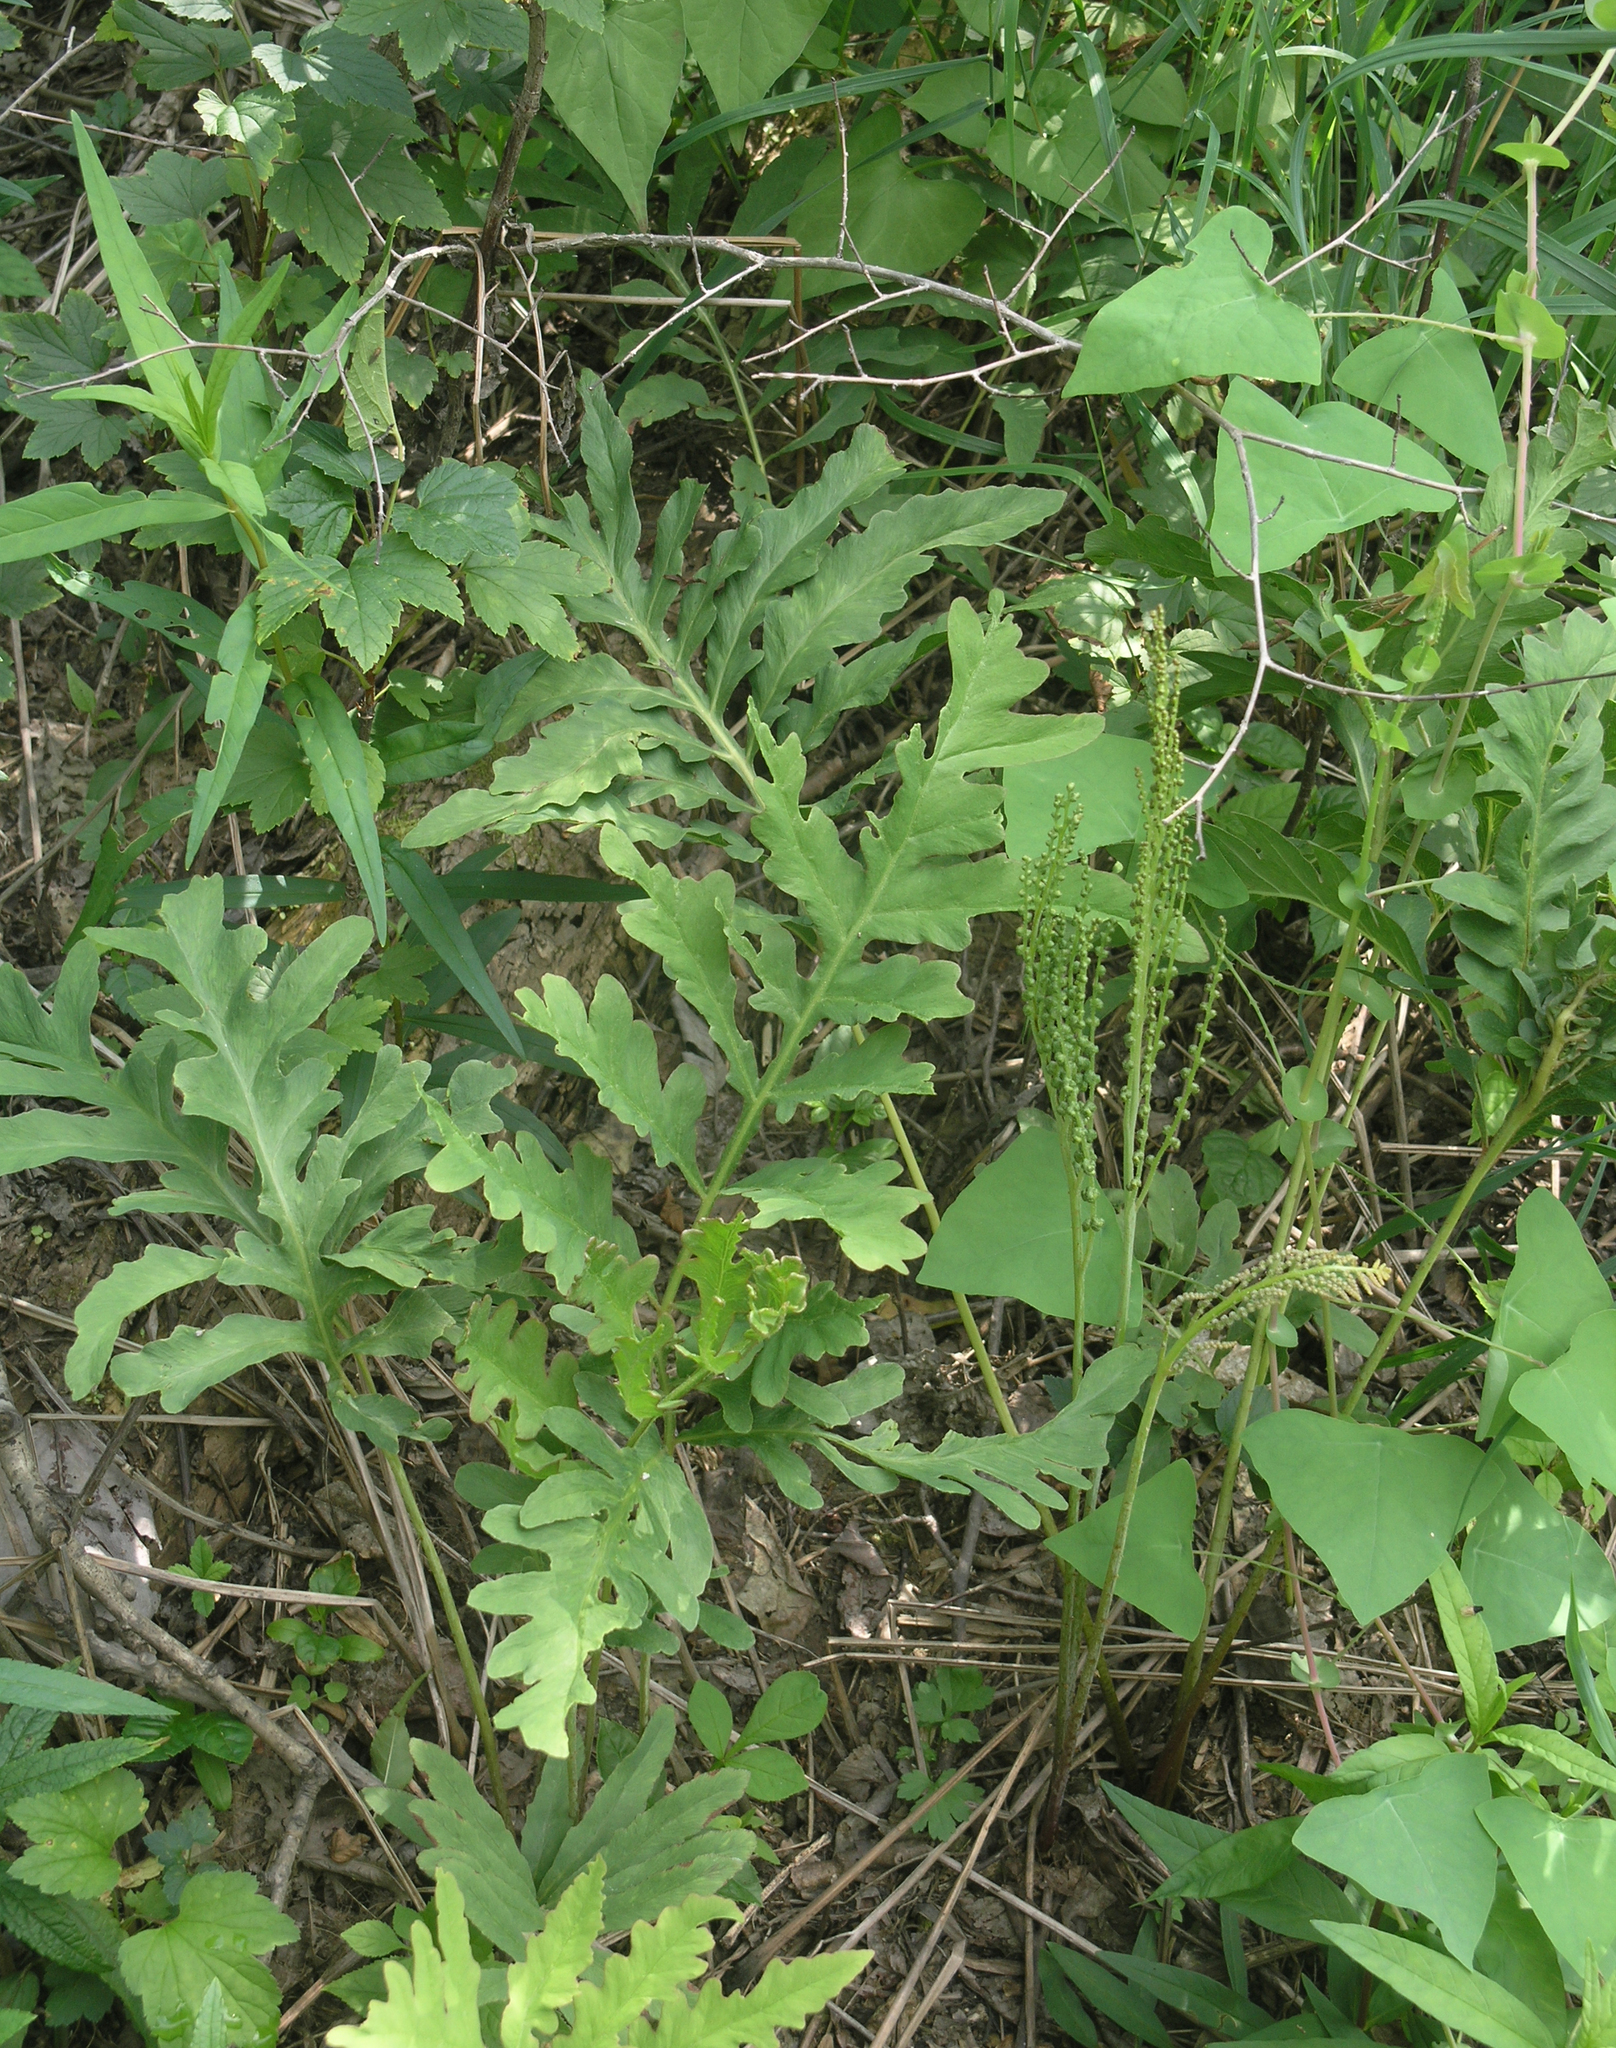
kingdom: Plantae
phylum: Tracheophyta
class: Polypodiopsida
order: Polypodiales
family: Onocleaceae
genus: Onoclea
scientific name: Onoclea sensibilis
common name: Sensitive fern
